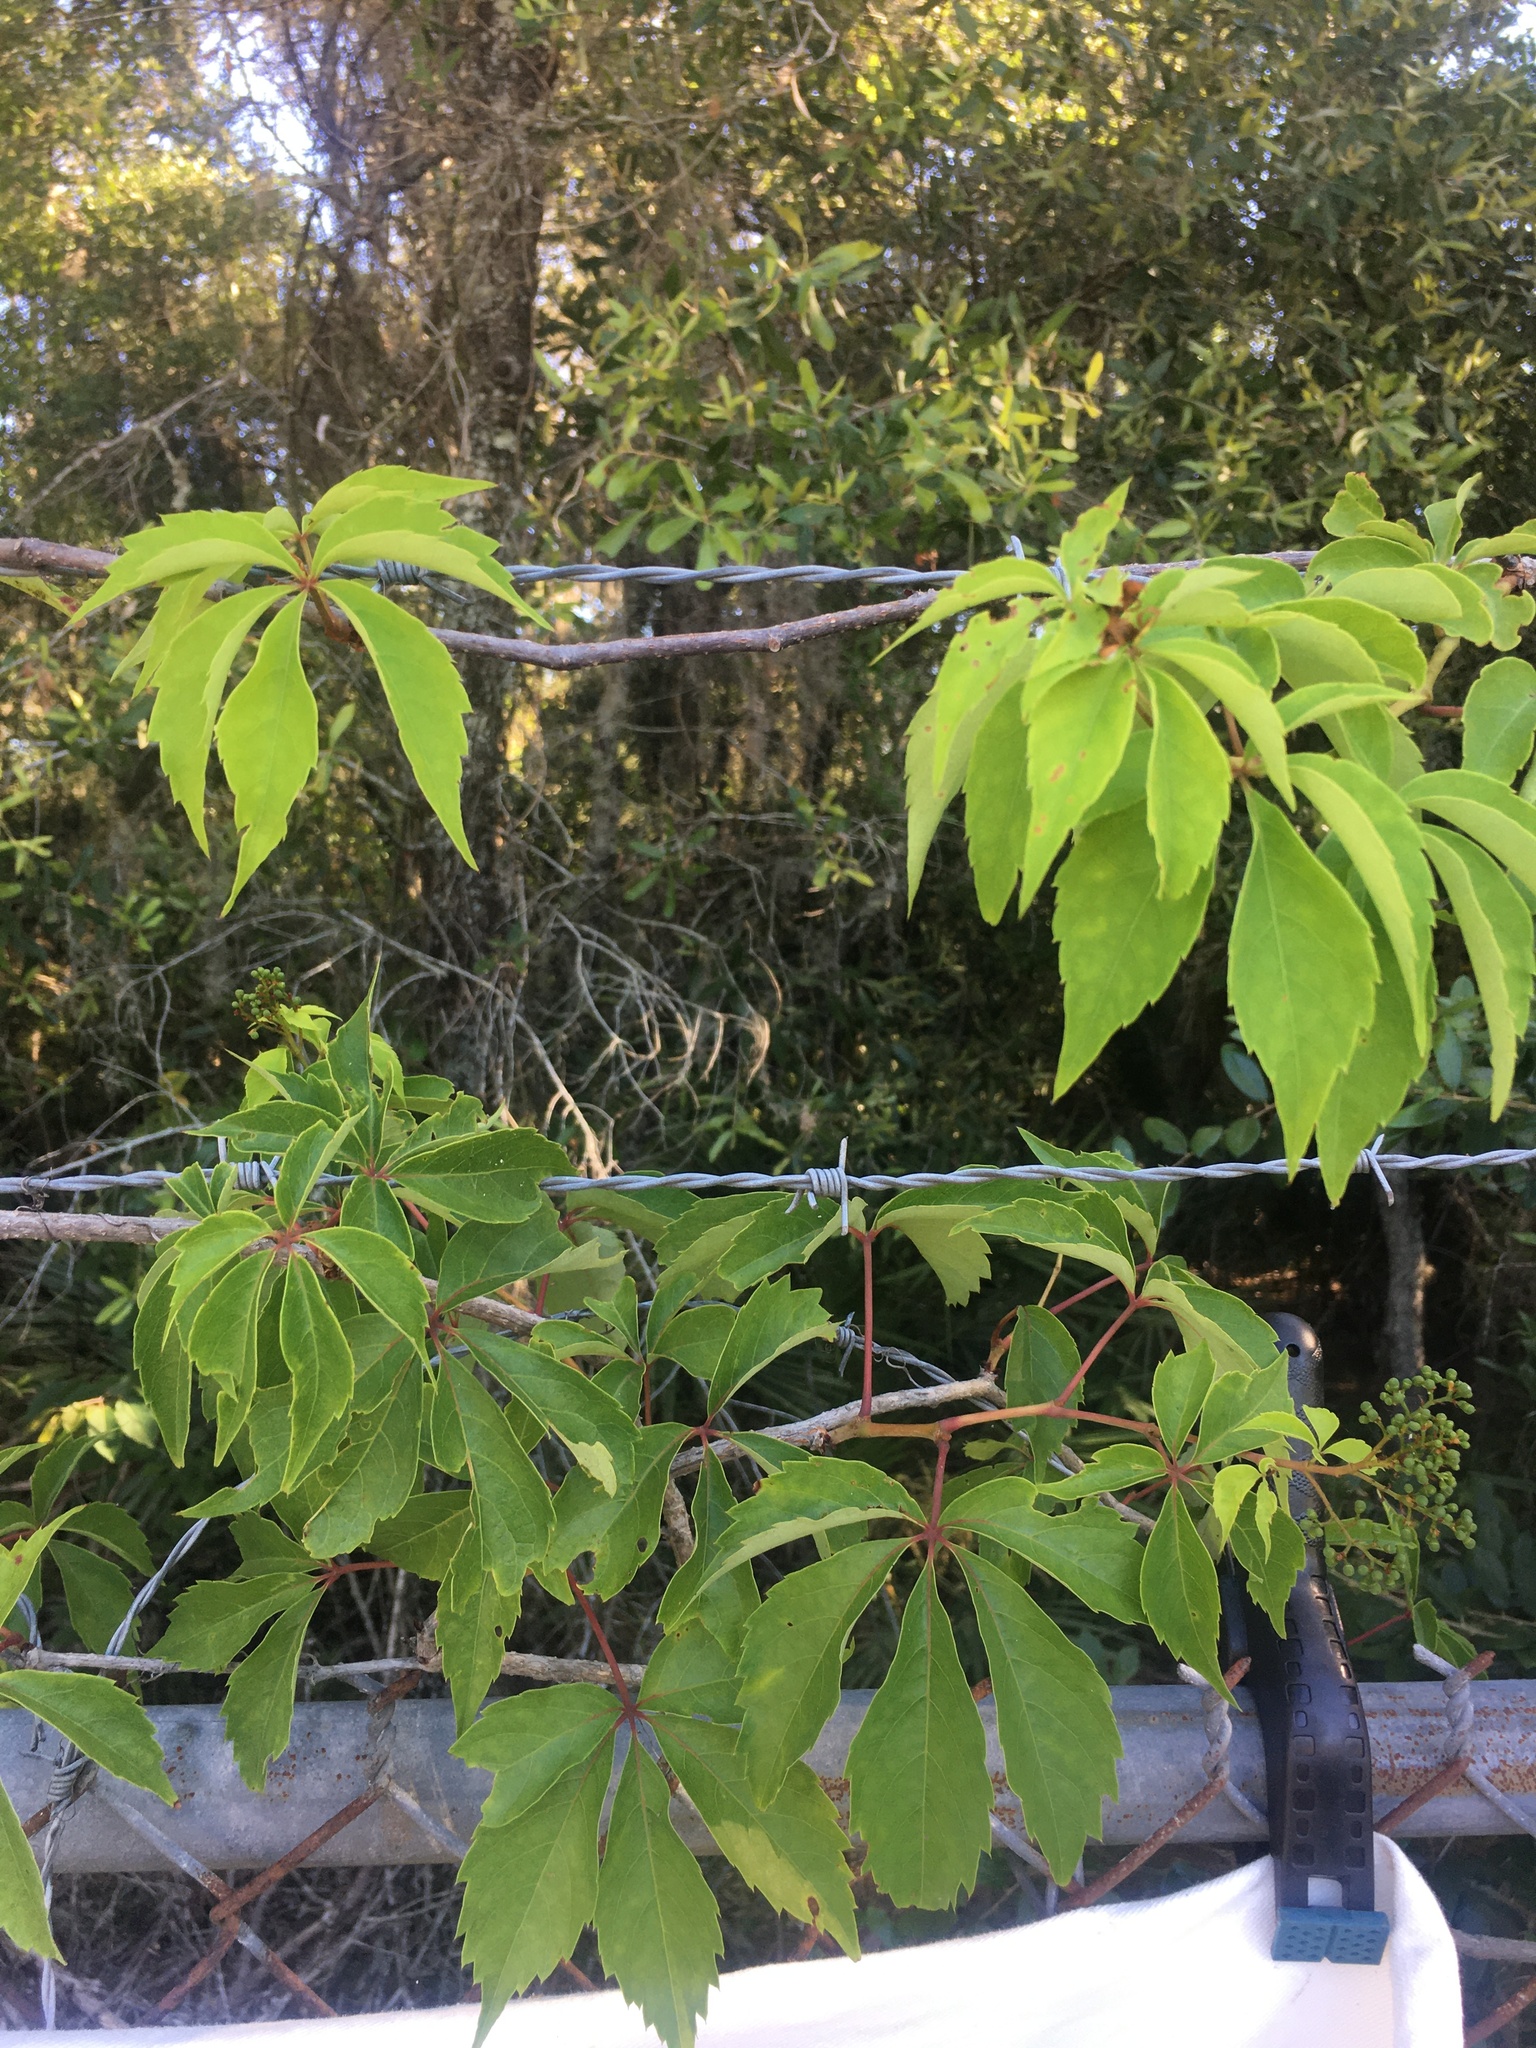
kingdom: Plantae
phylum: Tracheophyta
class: Magnoliopsida
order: Vitales
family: Vitaceae
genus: Parthenocissus
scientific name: Parthenocissus quinquefolia
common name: Virginia-creeper
